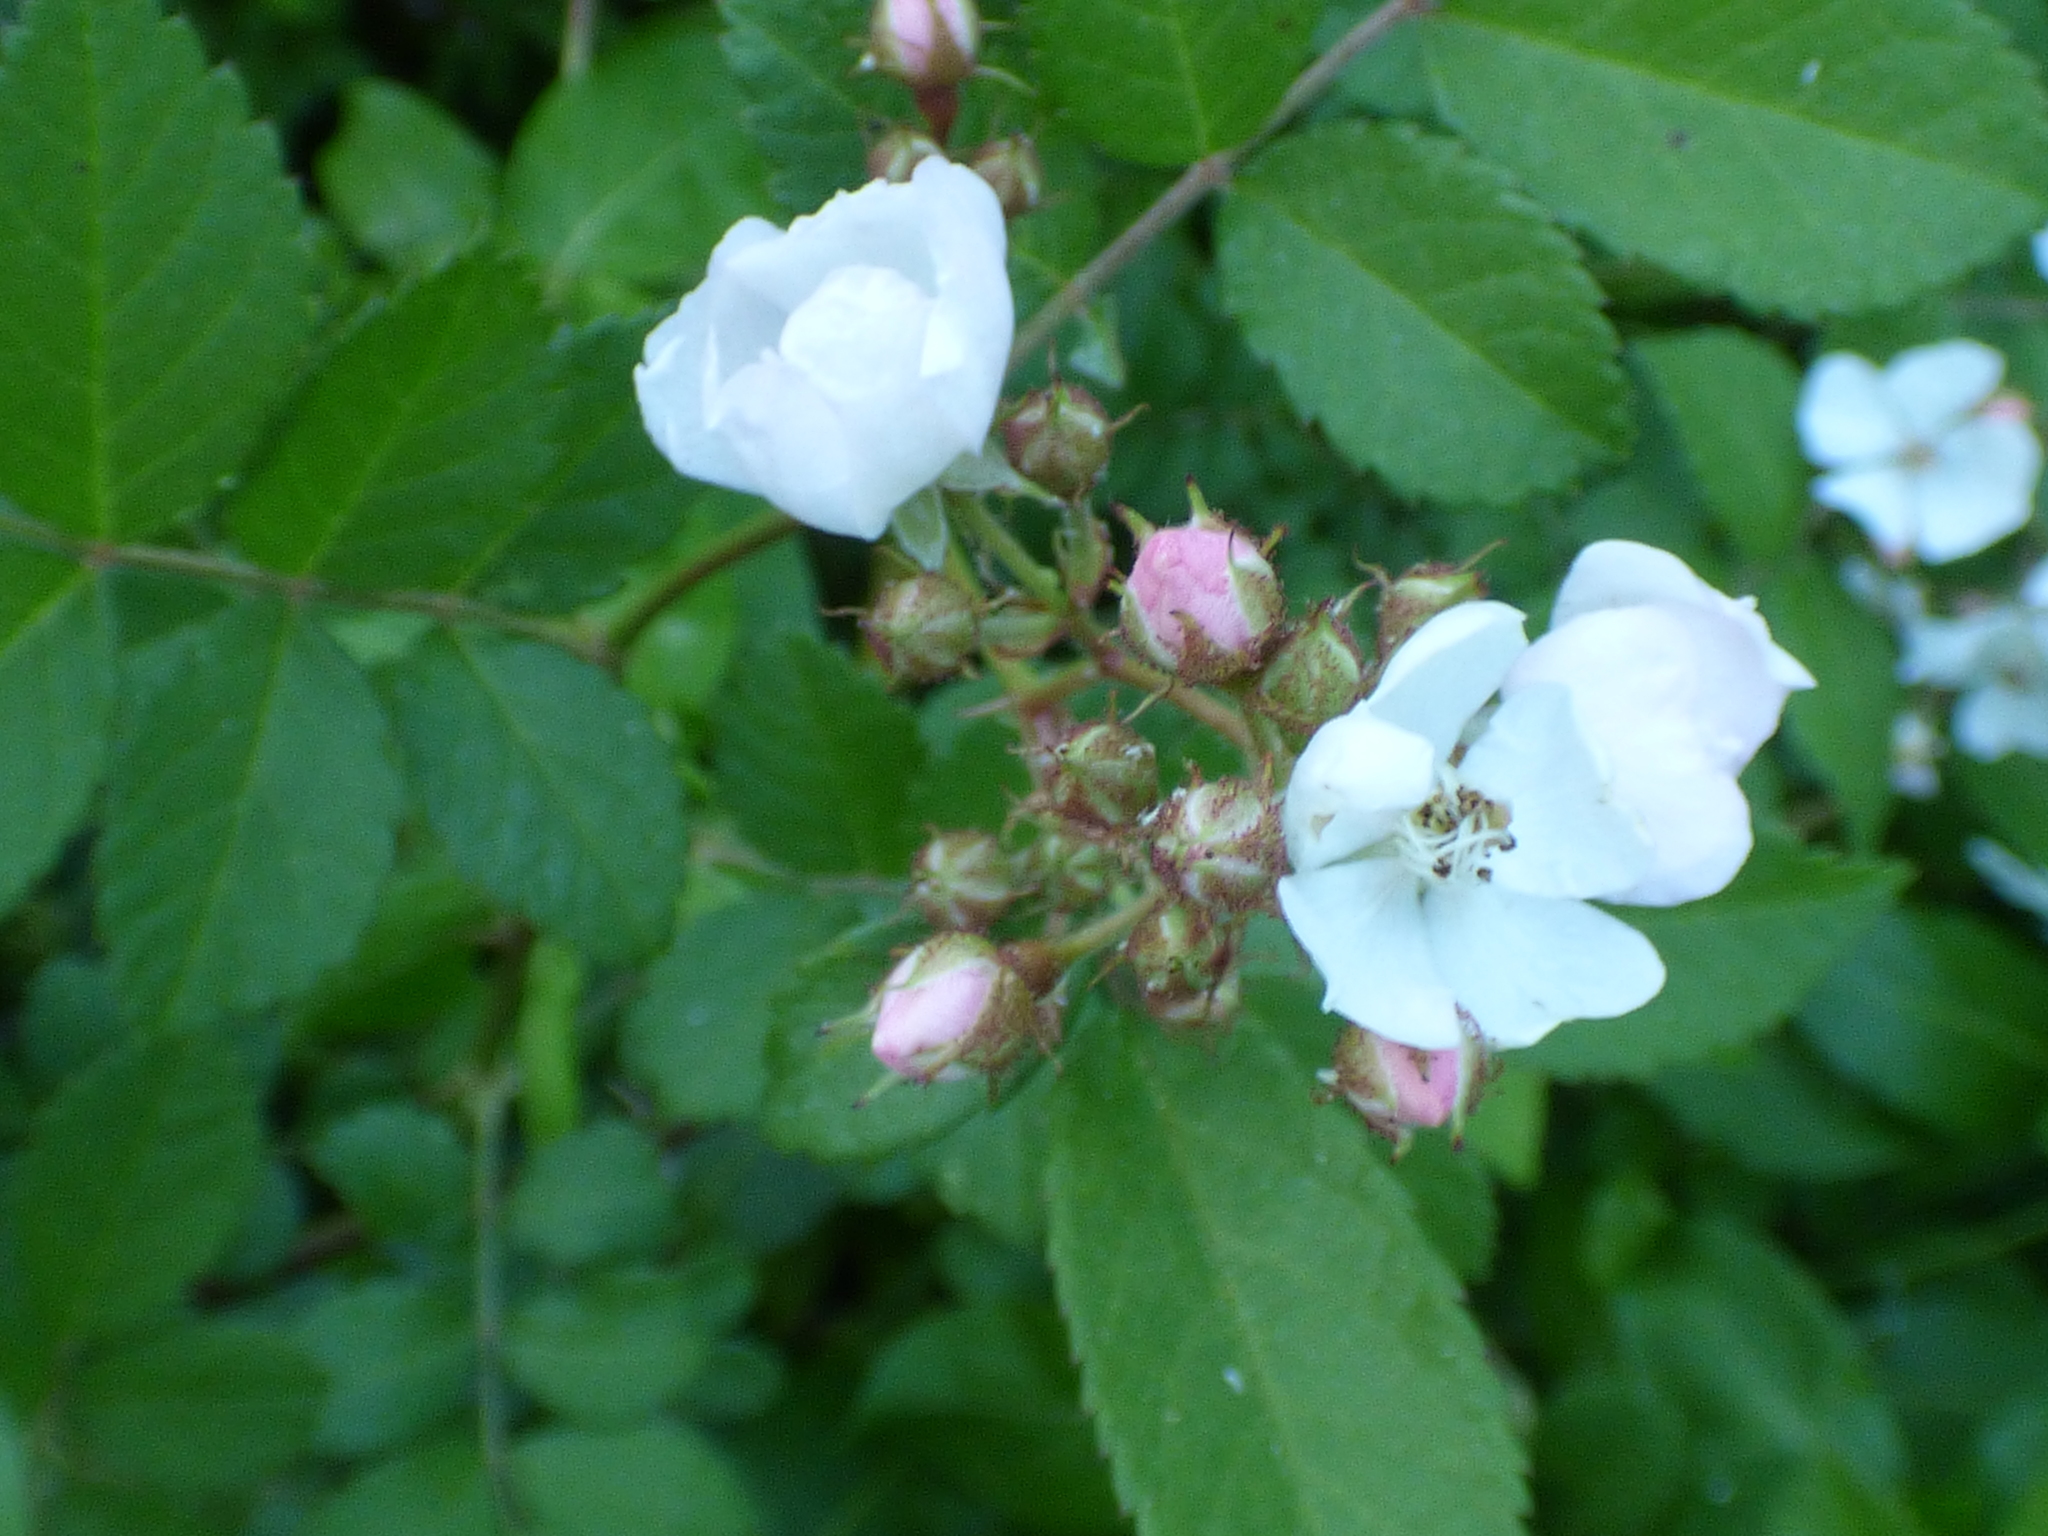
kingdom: Plantae
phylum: Tracheophyta
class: Magnoliopsida
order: Rosales
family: Rosaceae
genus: Rosa
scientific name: Rosa multiflora
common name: Multiflora rose
